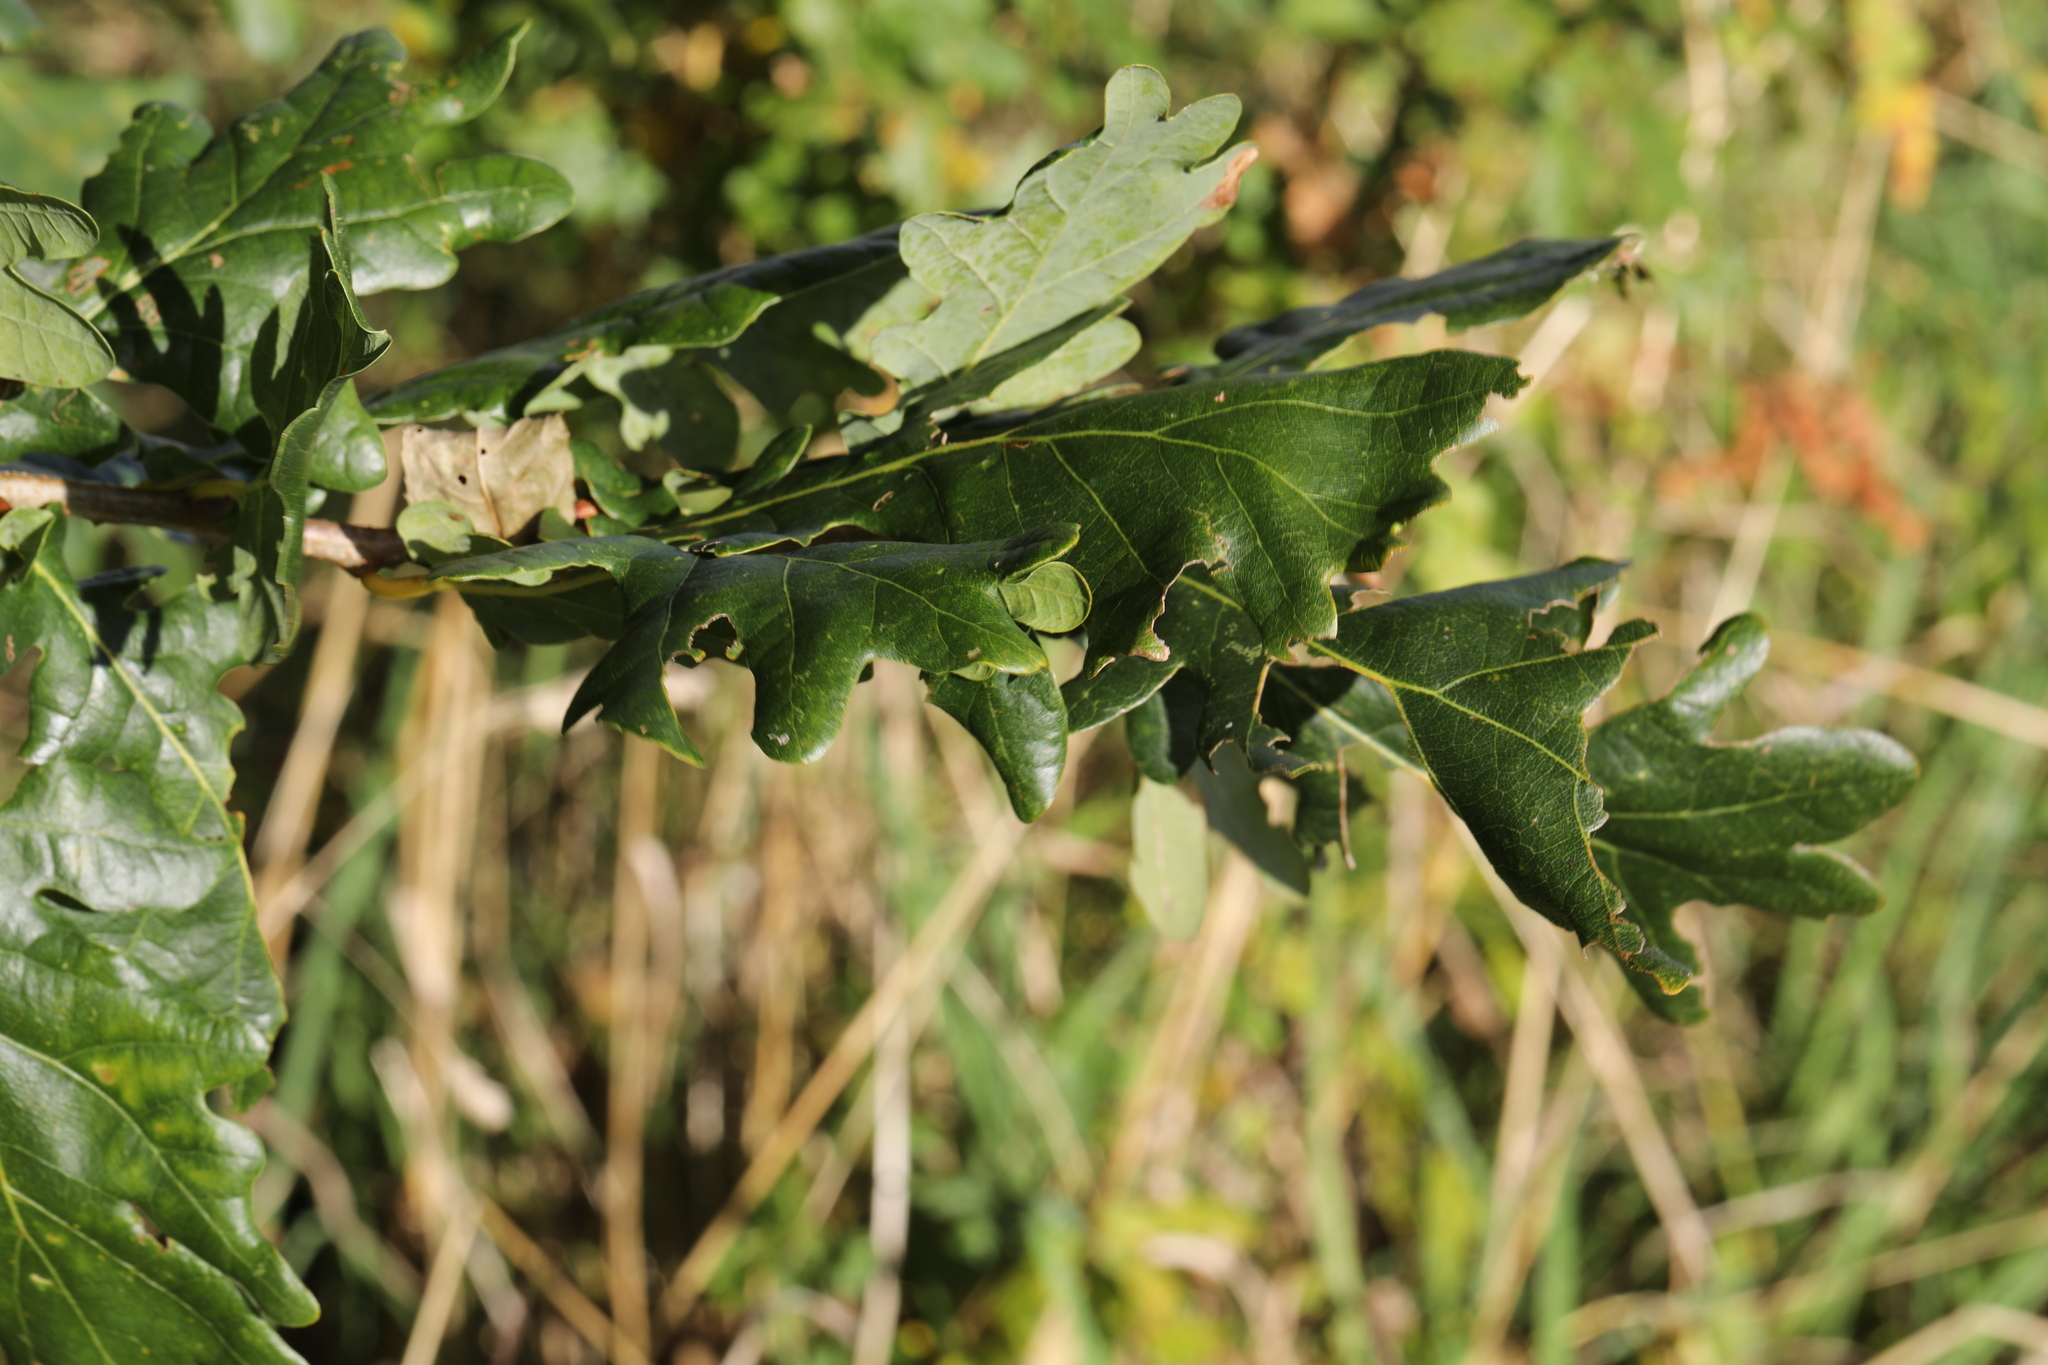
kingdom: Plantae
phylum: Tracheophyta
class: Magnoliopsida
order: Fagales
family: Fagaceae
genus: Quercus
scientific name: Quercus robur
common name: Pedunculate oak
